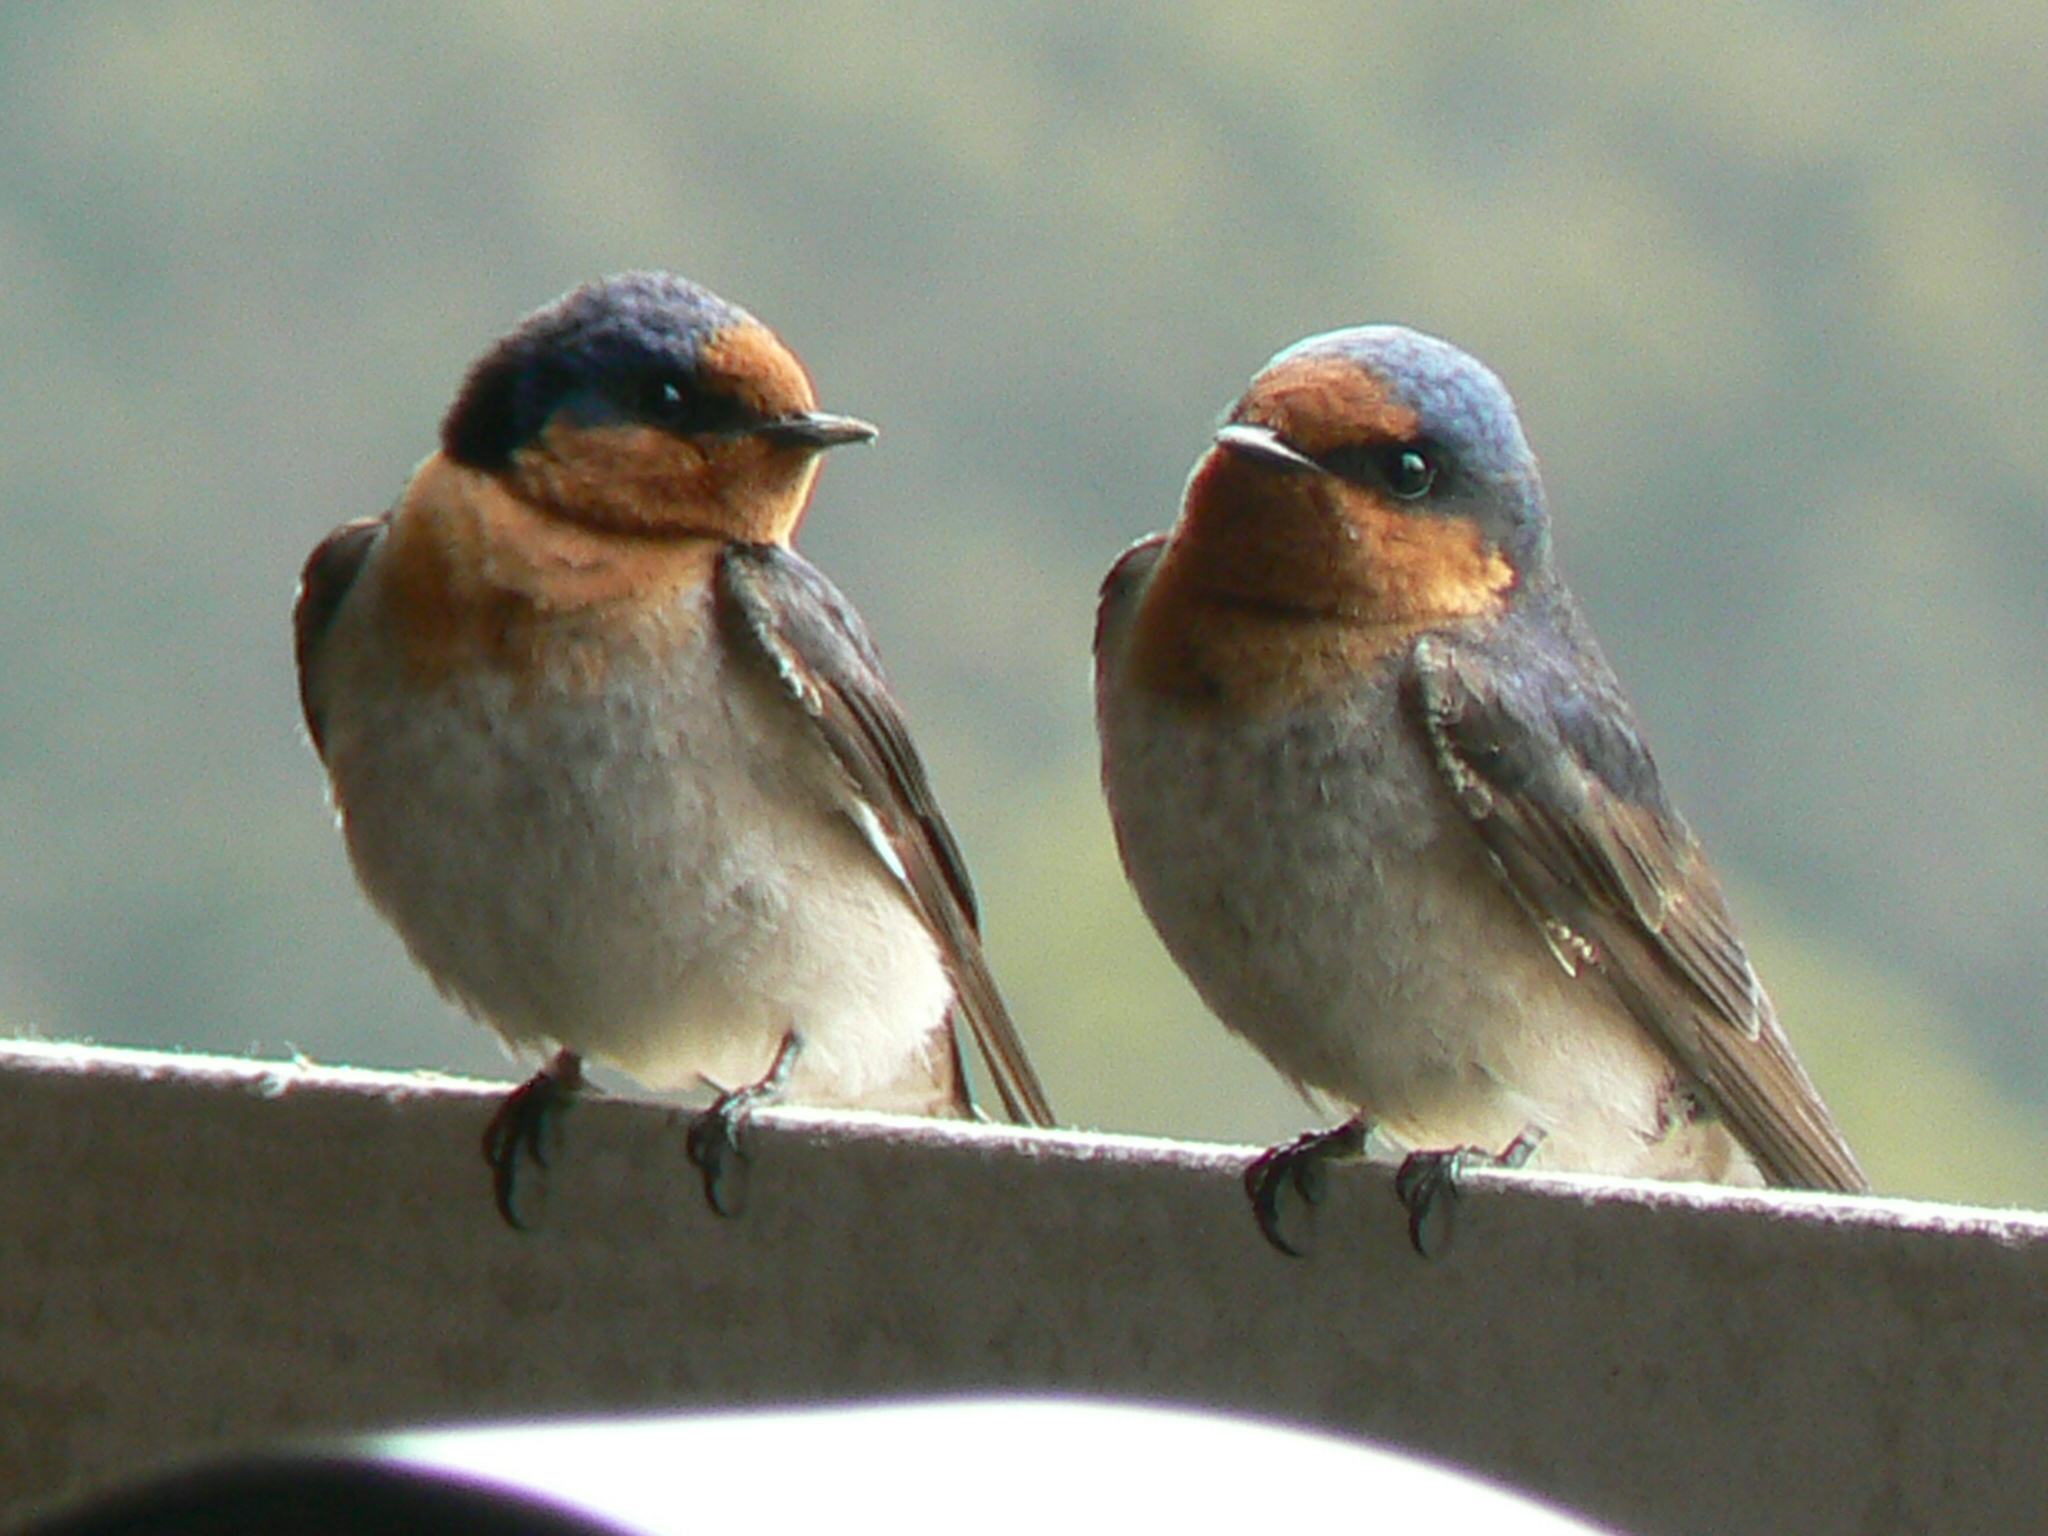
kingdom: Animalia
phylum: Chordata
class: Aves
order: Passeriformes
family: Hirundinidae
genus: Hirundo
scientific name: Hirundo neoxena
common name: Welcome swallow
